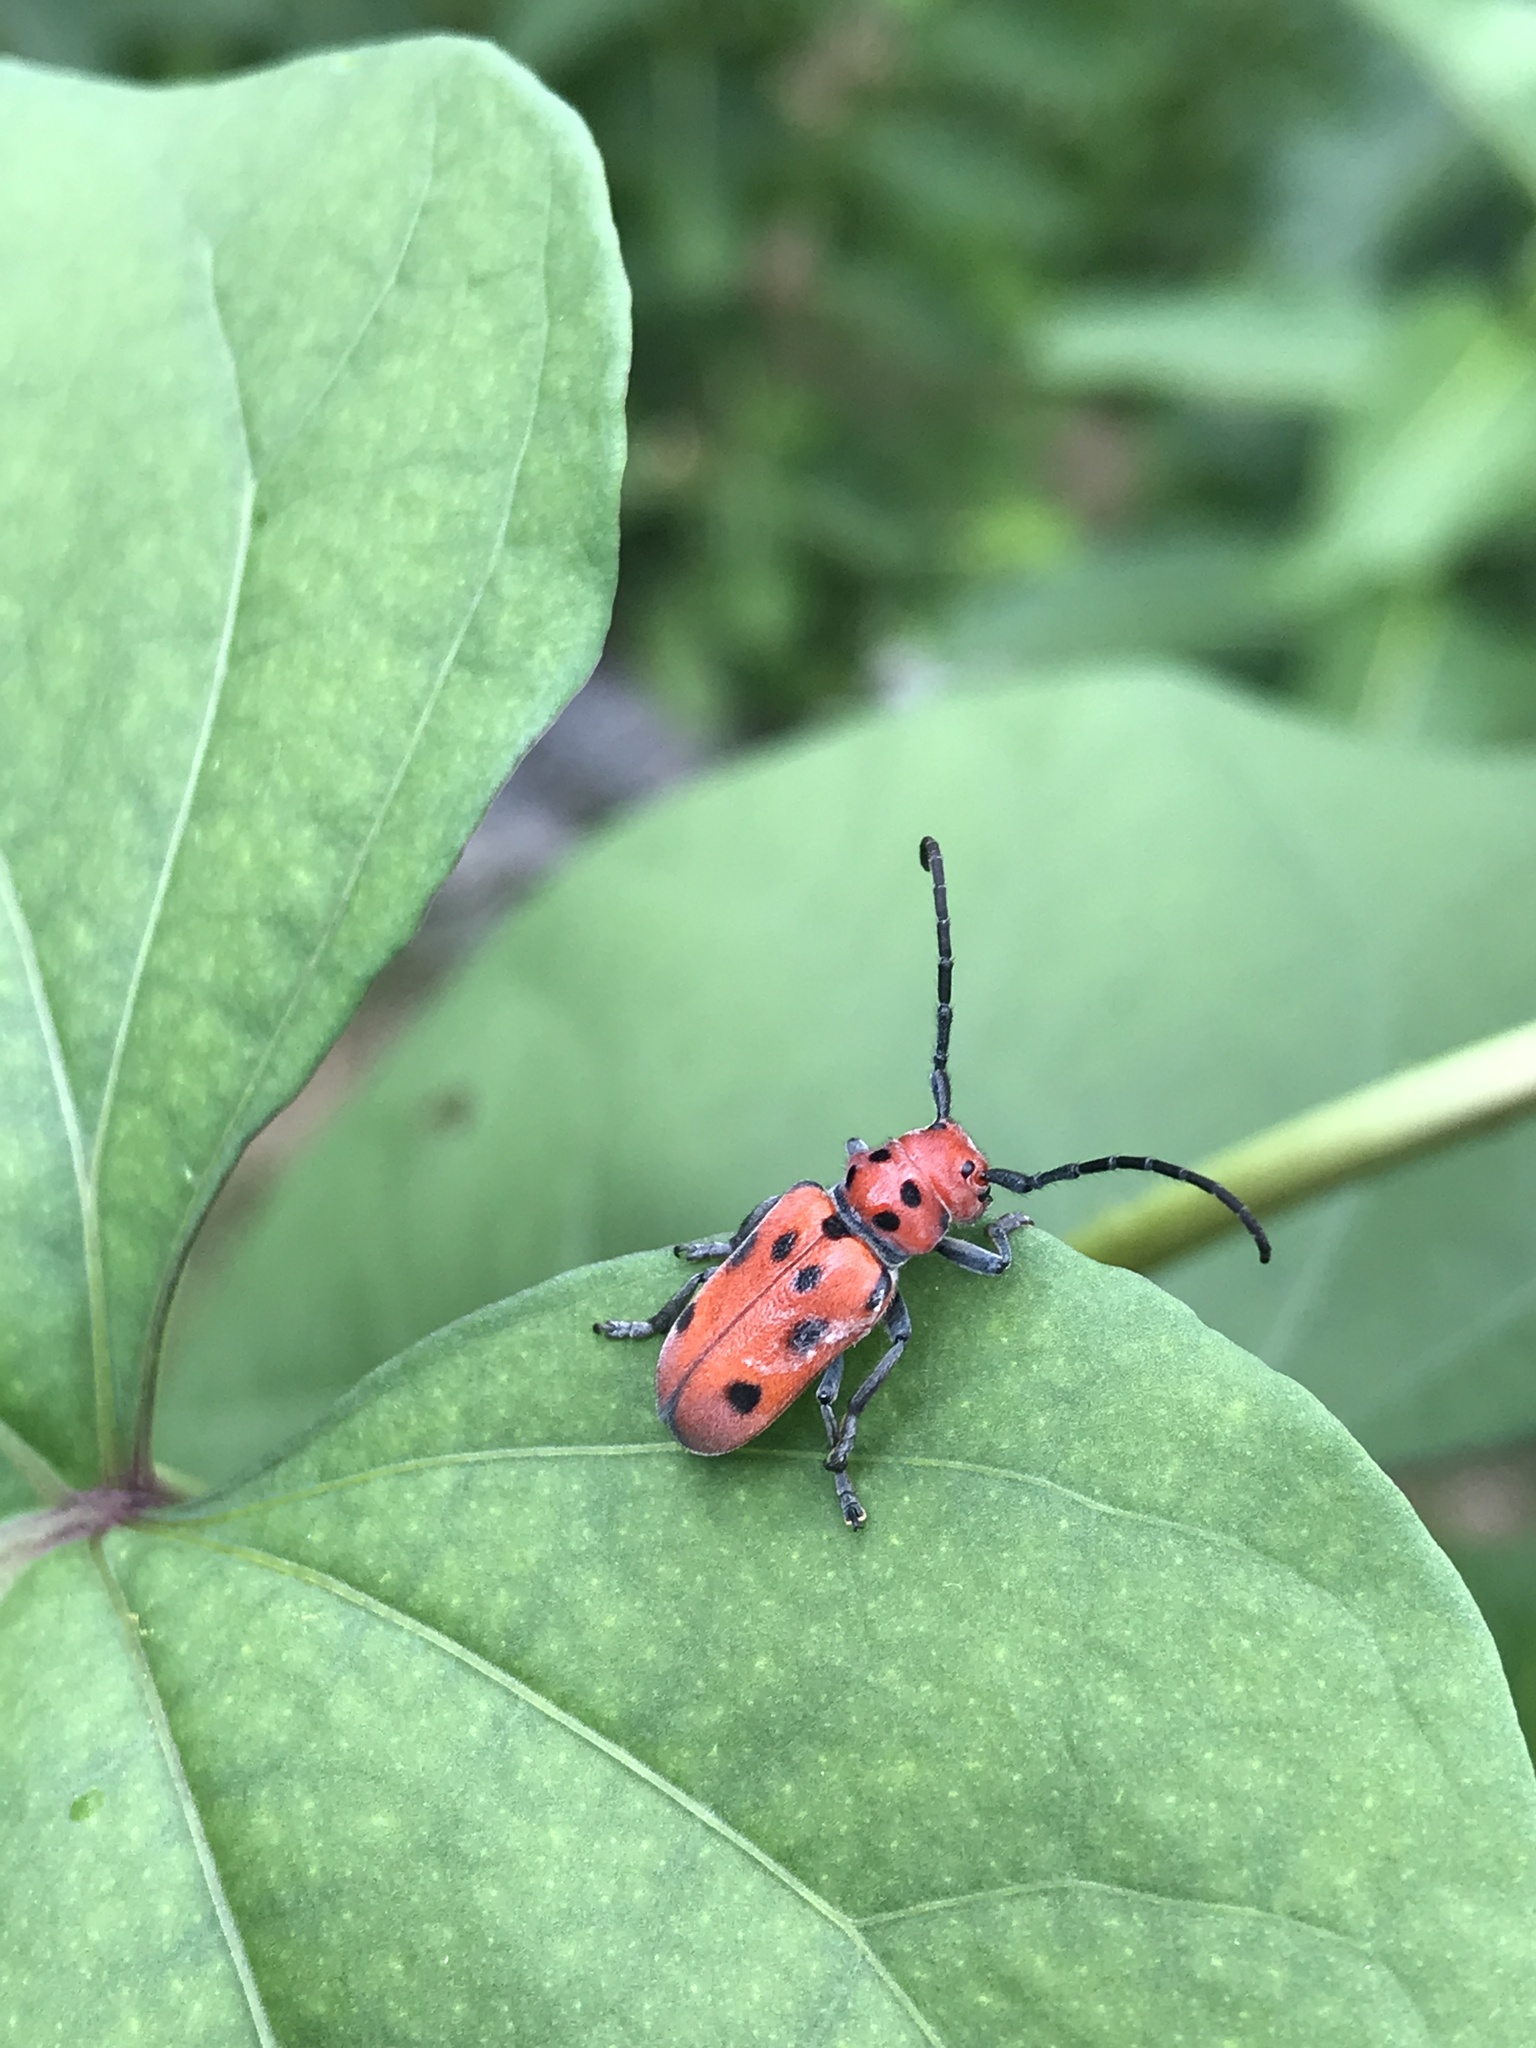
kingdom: Animalia
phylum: Arthropoda
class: Insecta
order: Coleoptera
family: Cerambycidae
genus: Tetraopes
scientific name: Tetraopes tetrophthalmus
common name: Red milkweed beetle
